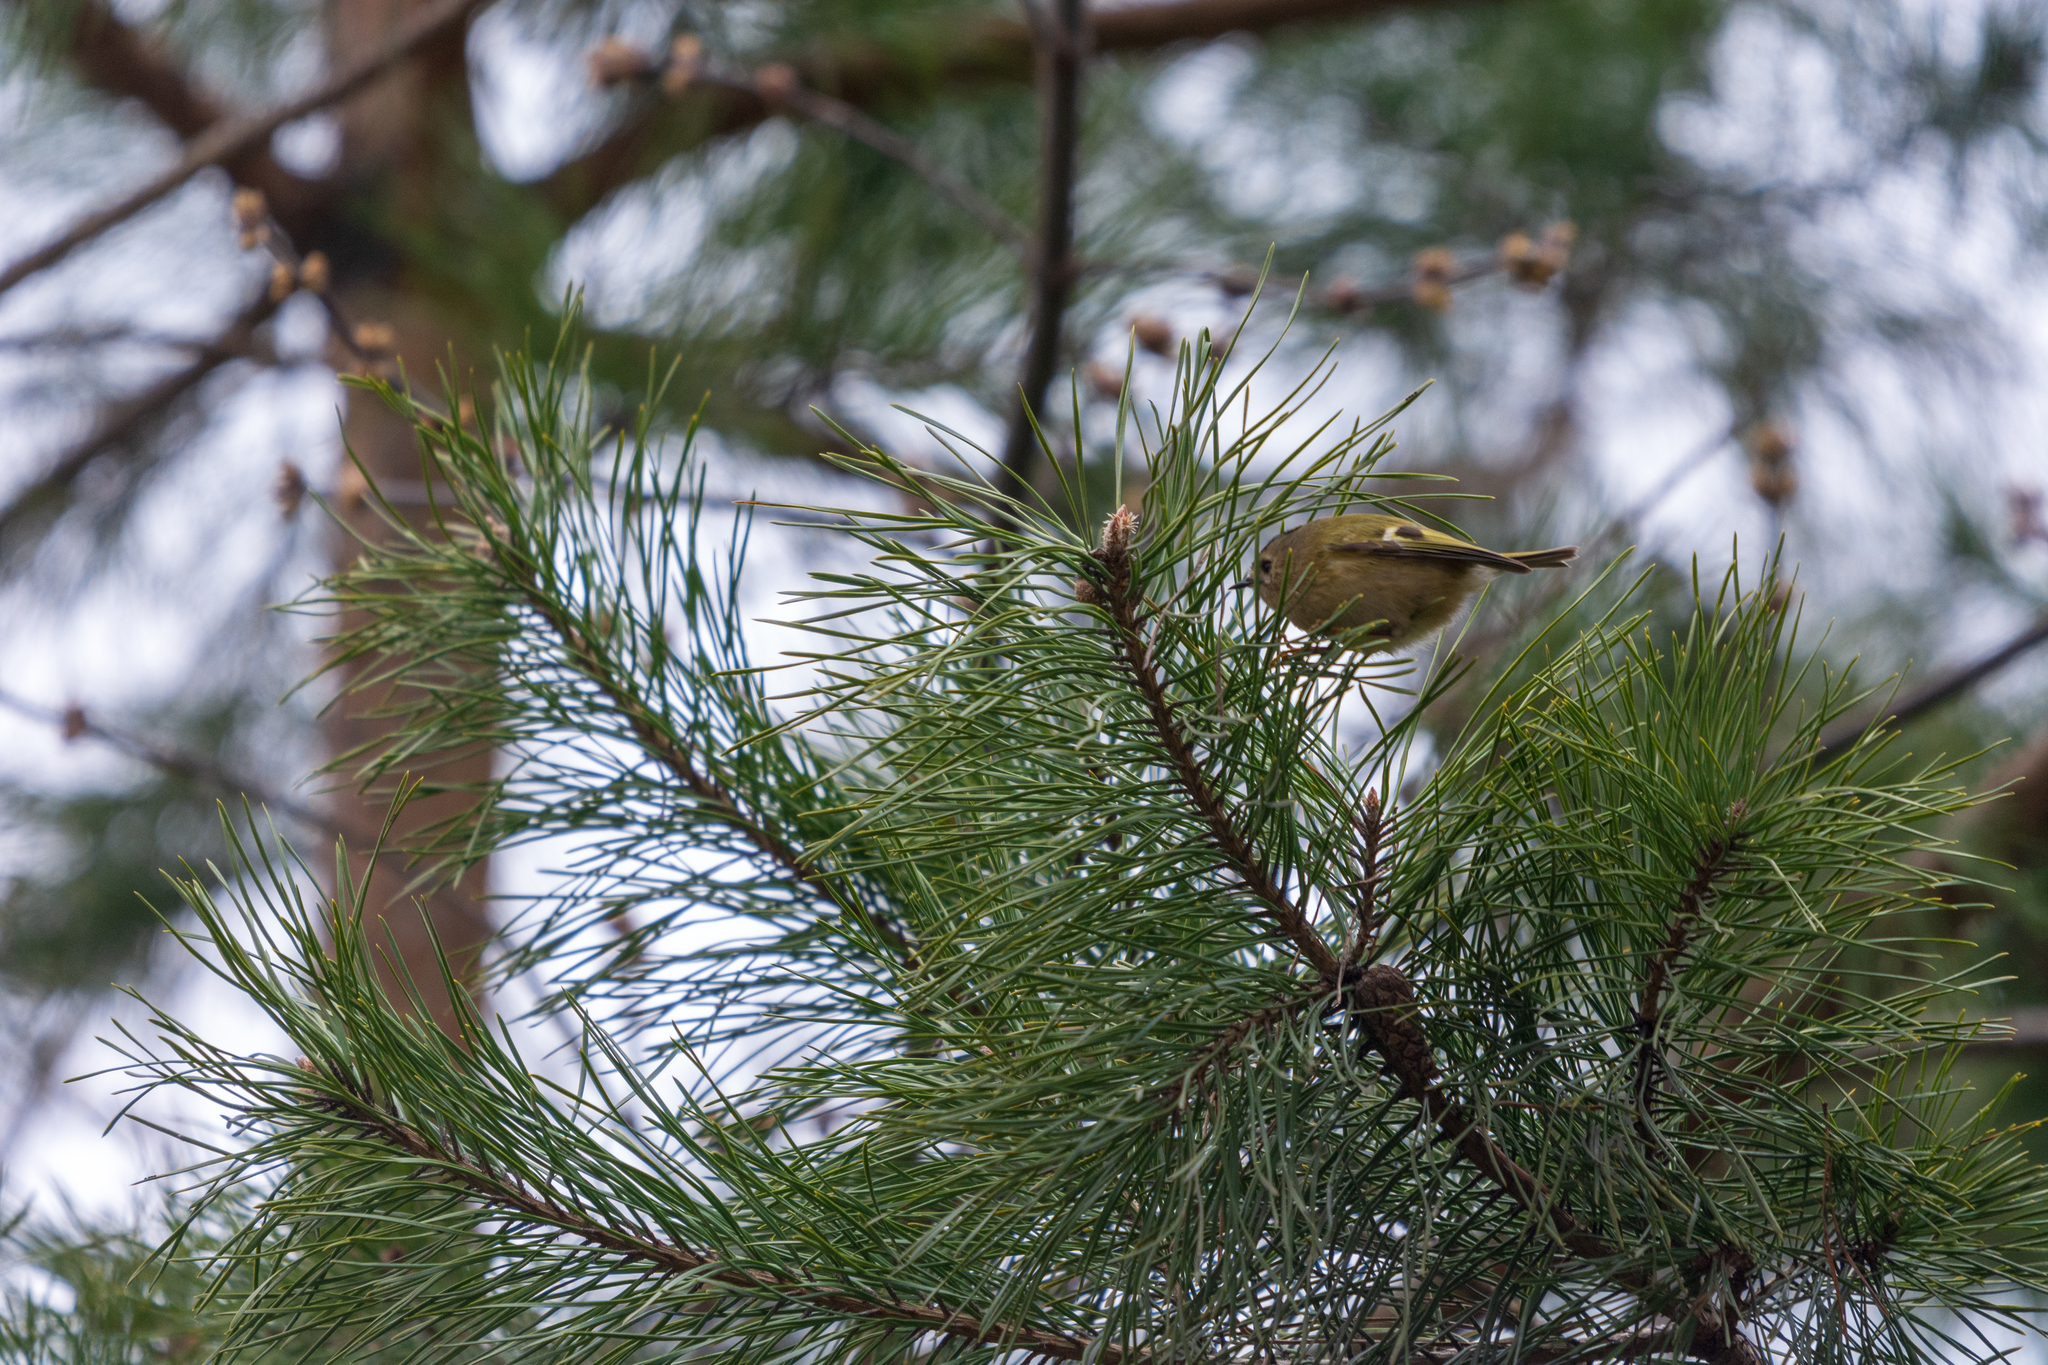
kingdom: Animalia
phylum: Chordata
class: Aves
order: Passeriformes
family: Regulidae
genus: Regulus
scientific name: Regulus regulus
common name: Goldcrest
